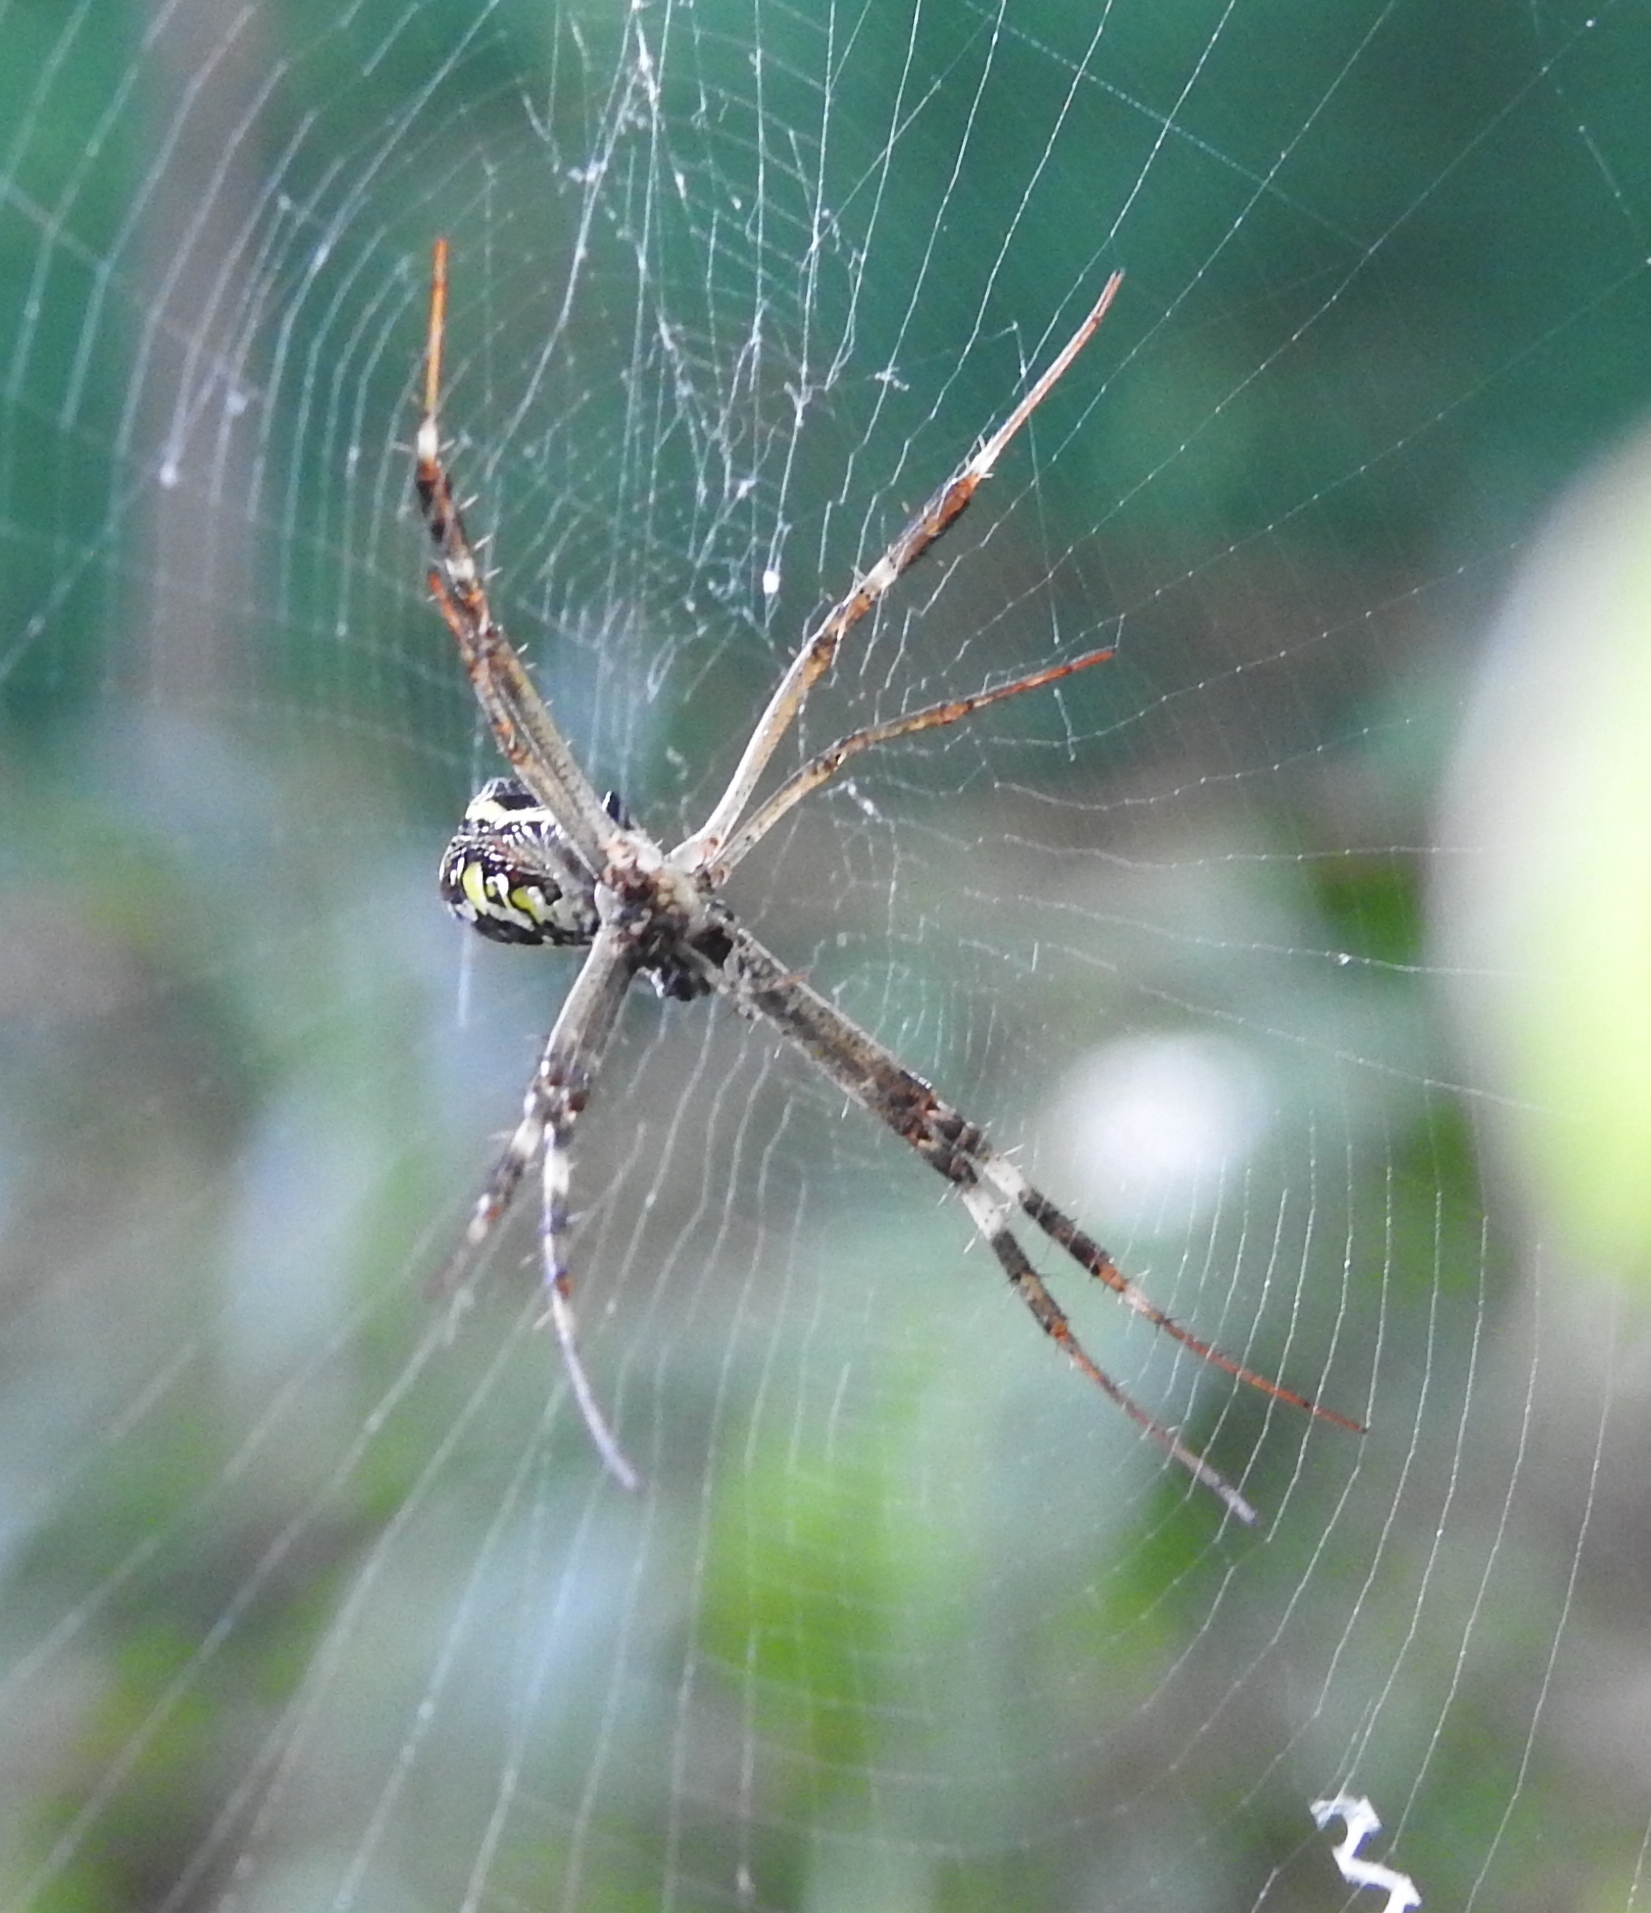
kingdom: Animalia
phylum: Arthropoda
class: Arachnida
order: Araneae
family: Araneidae
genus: Argiope
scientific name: Argiope dang
